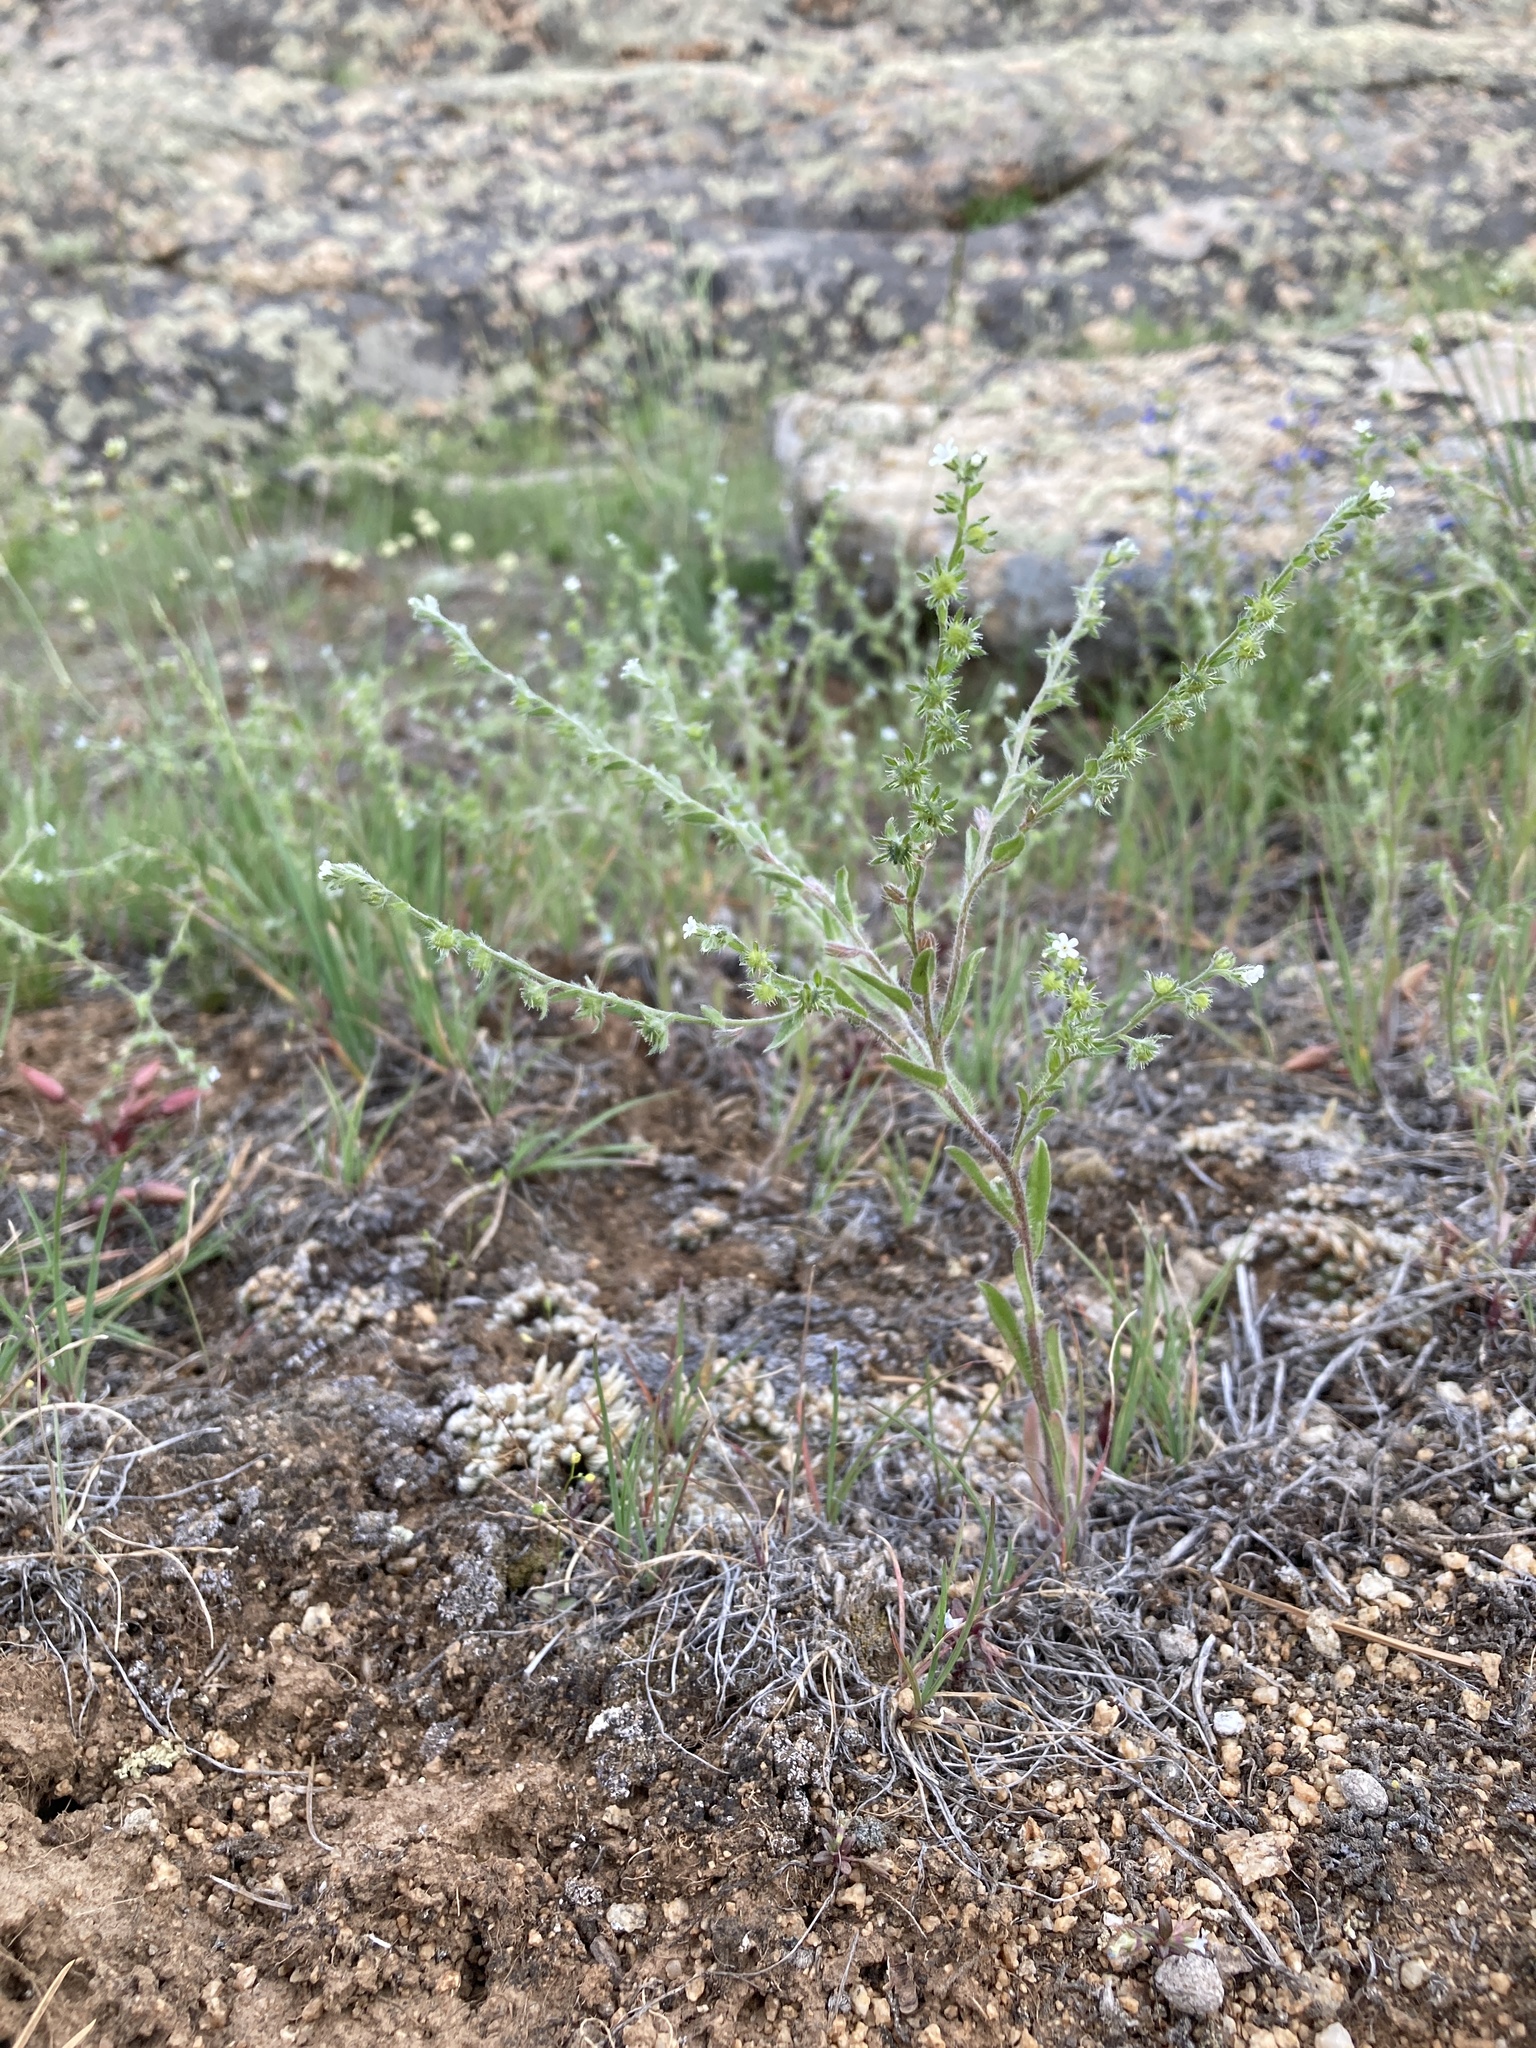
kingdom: Plantae
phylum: Tracheophyta
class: Magnoliopsida
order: Boraginales
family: Boraginaceae
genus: Lappula
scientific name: Lappula occidentalis
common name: Western stickseed
